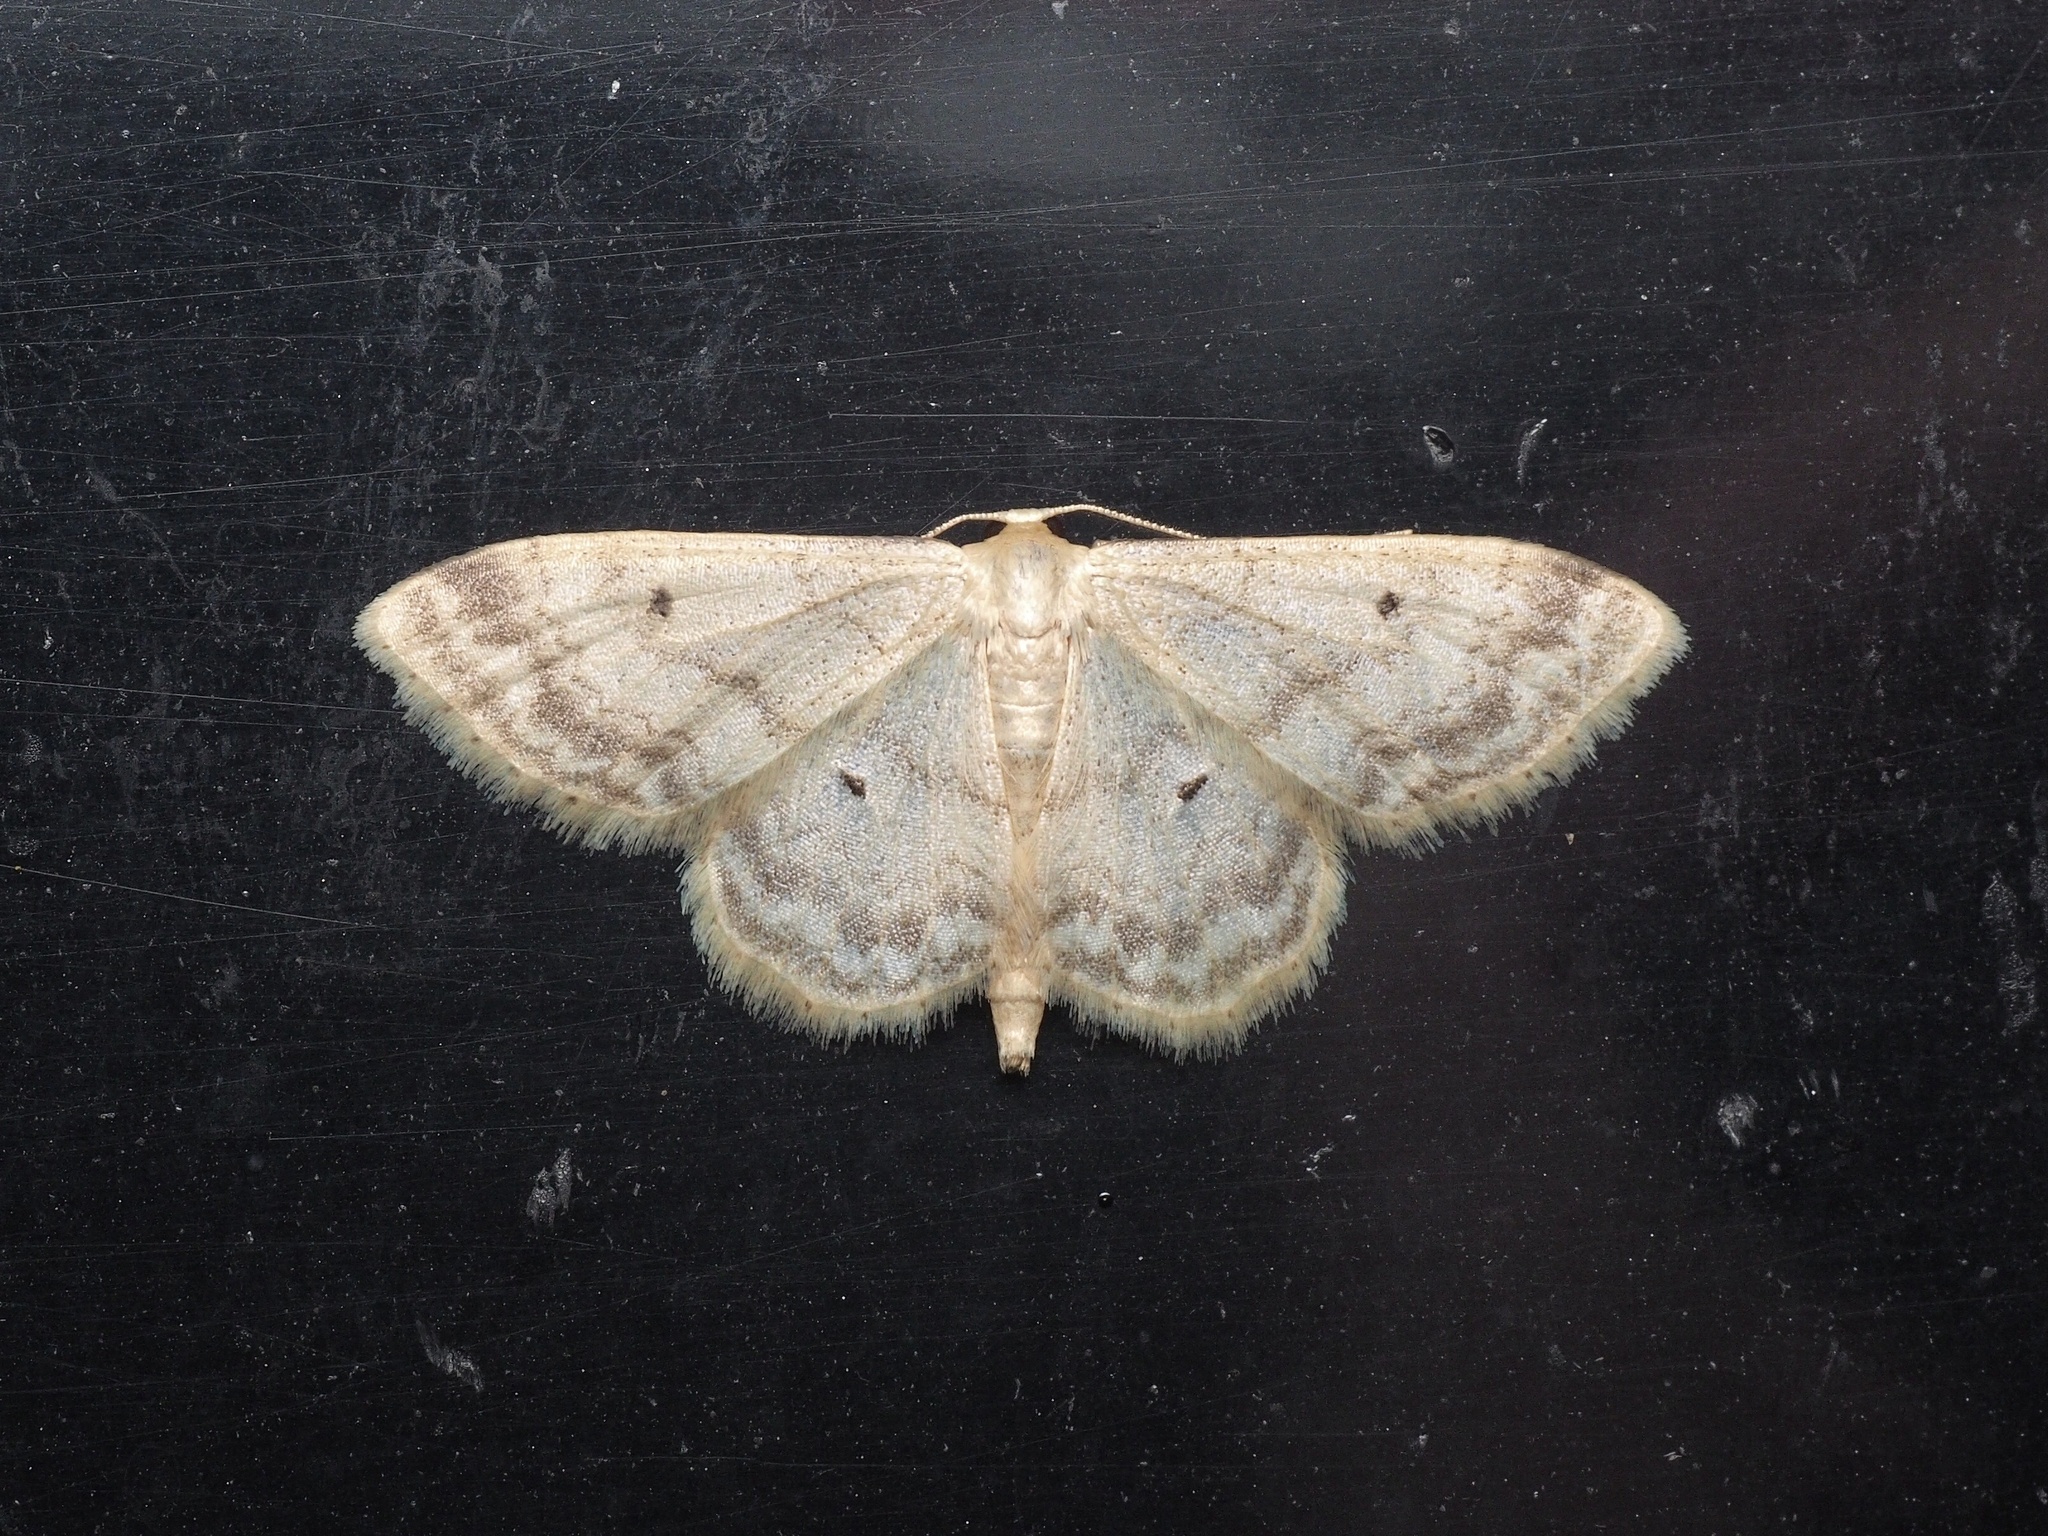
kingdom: Animalia
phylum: Arthropoda
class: Insecta
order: Lepidoptera
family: Geometridae
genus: Idaea
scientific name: Idaea biselata
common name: Small fan-footed wave
